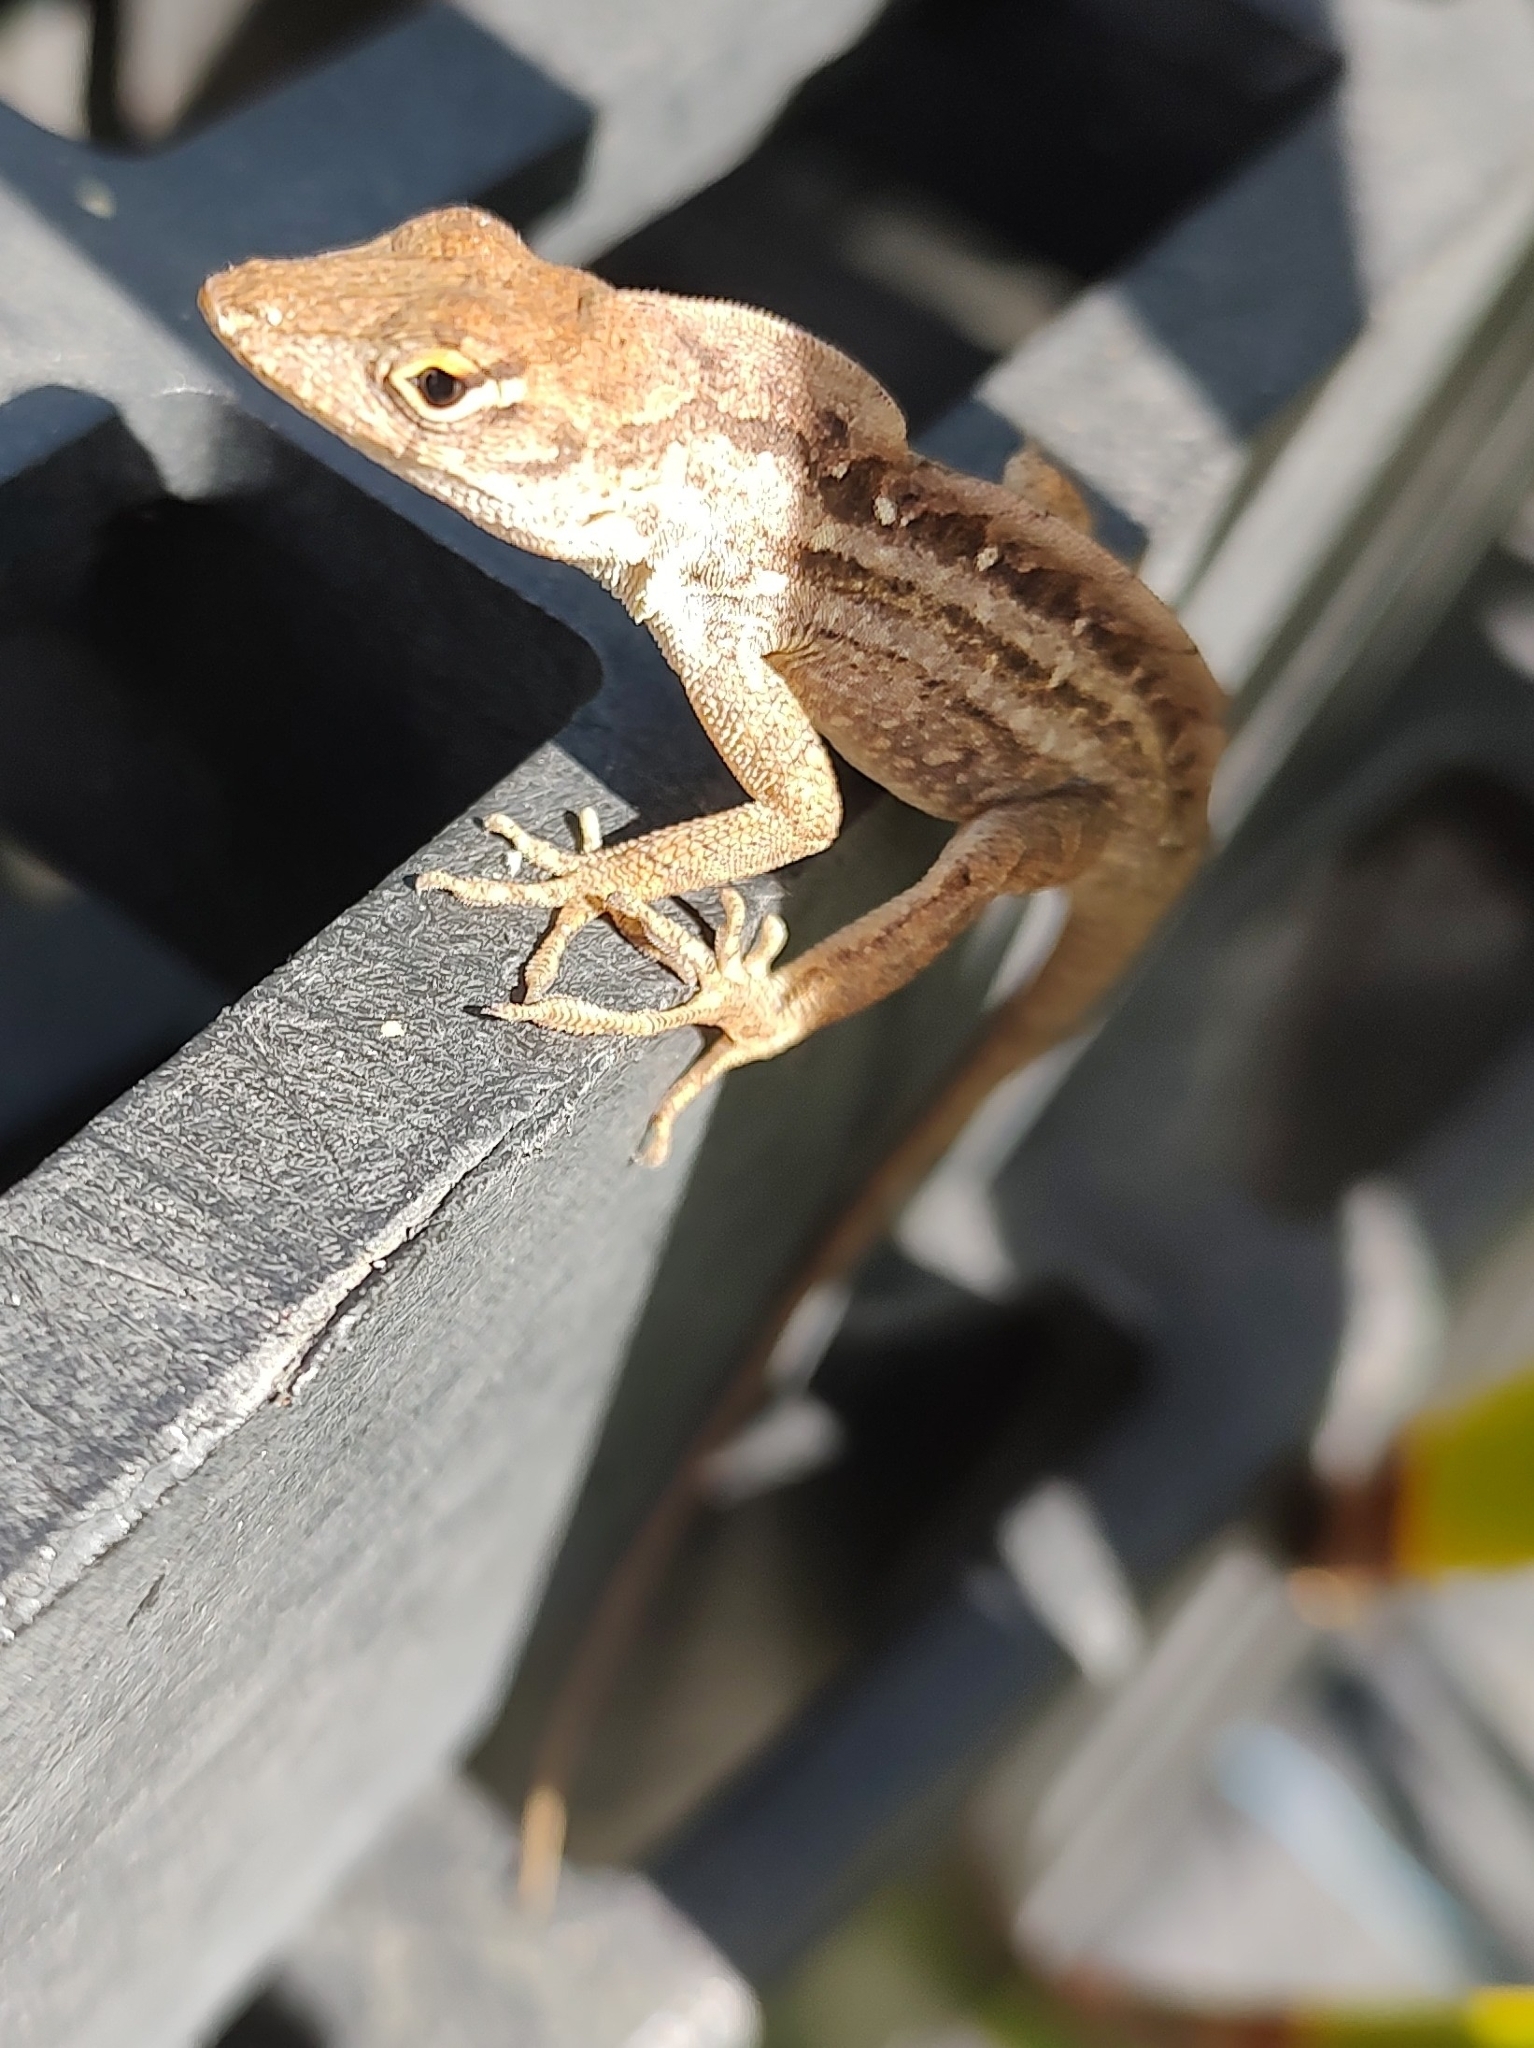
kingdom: Animalia
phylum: Chordata
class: Squamata
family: Dactyloidae
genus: Anolis
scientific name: Anolis sagrei
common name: Brown anole
